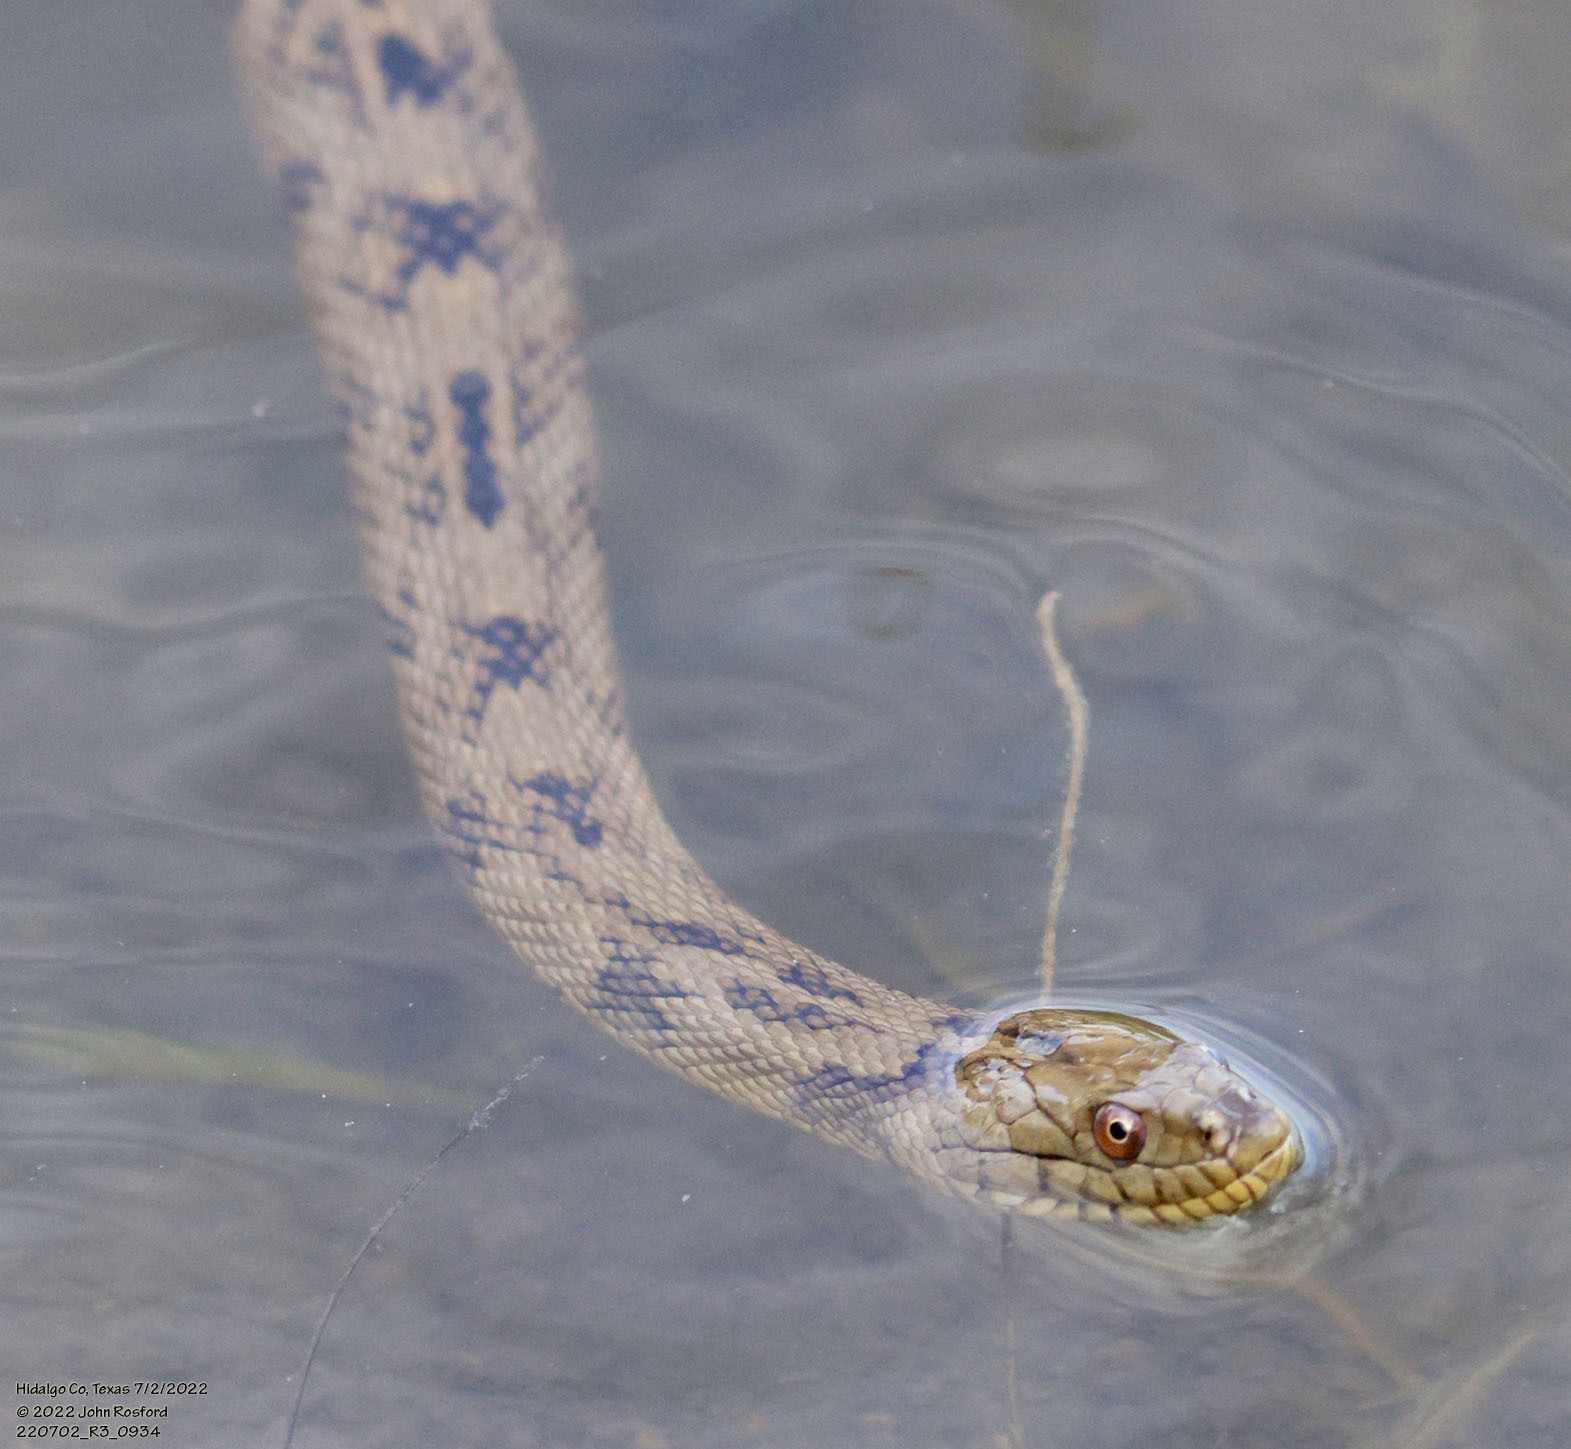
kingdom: Animalia
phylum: Chordata
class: Squamata
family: Colubridae
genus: Nerodia
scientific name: Nerodia rhombifer
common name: Diamondback water snake
